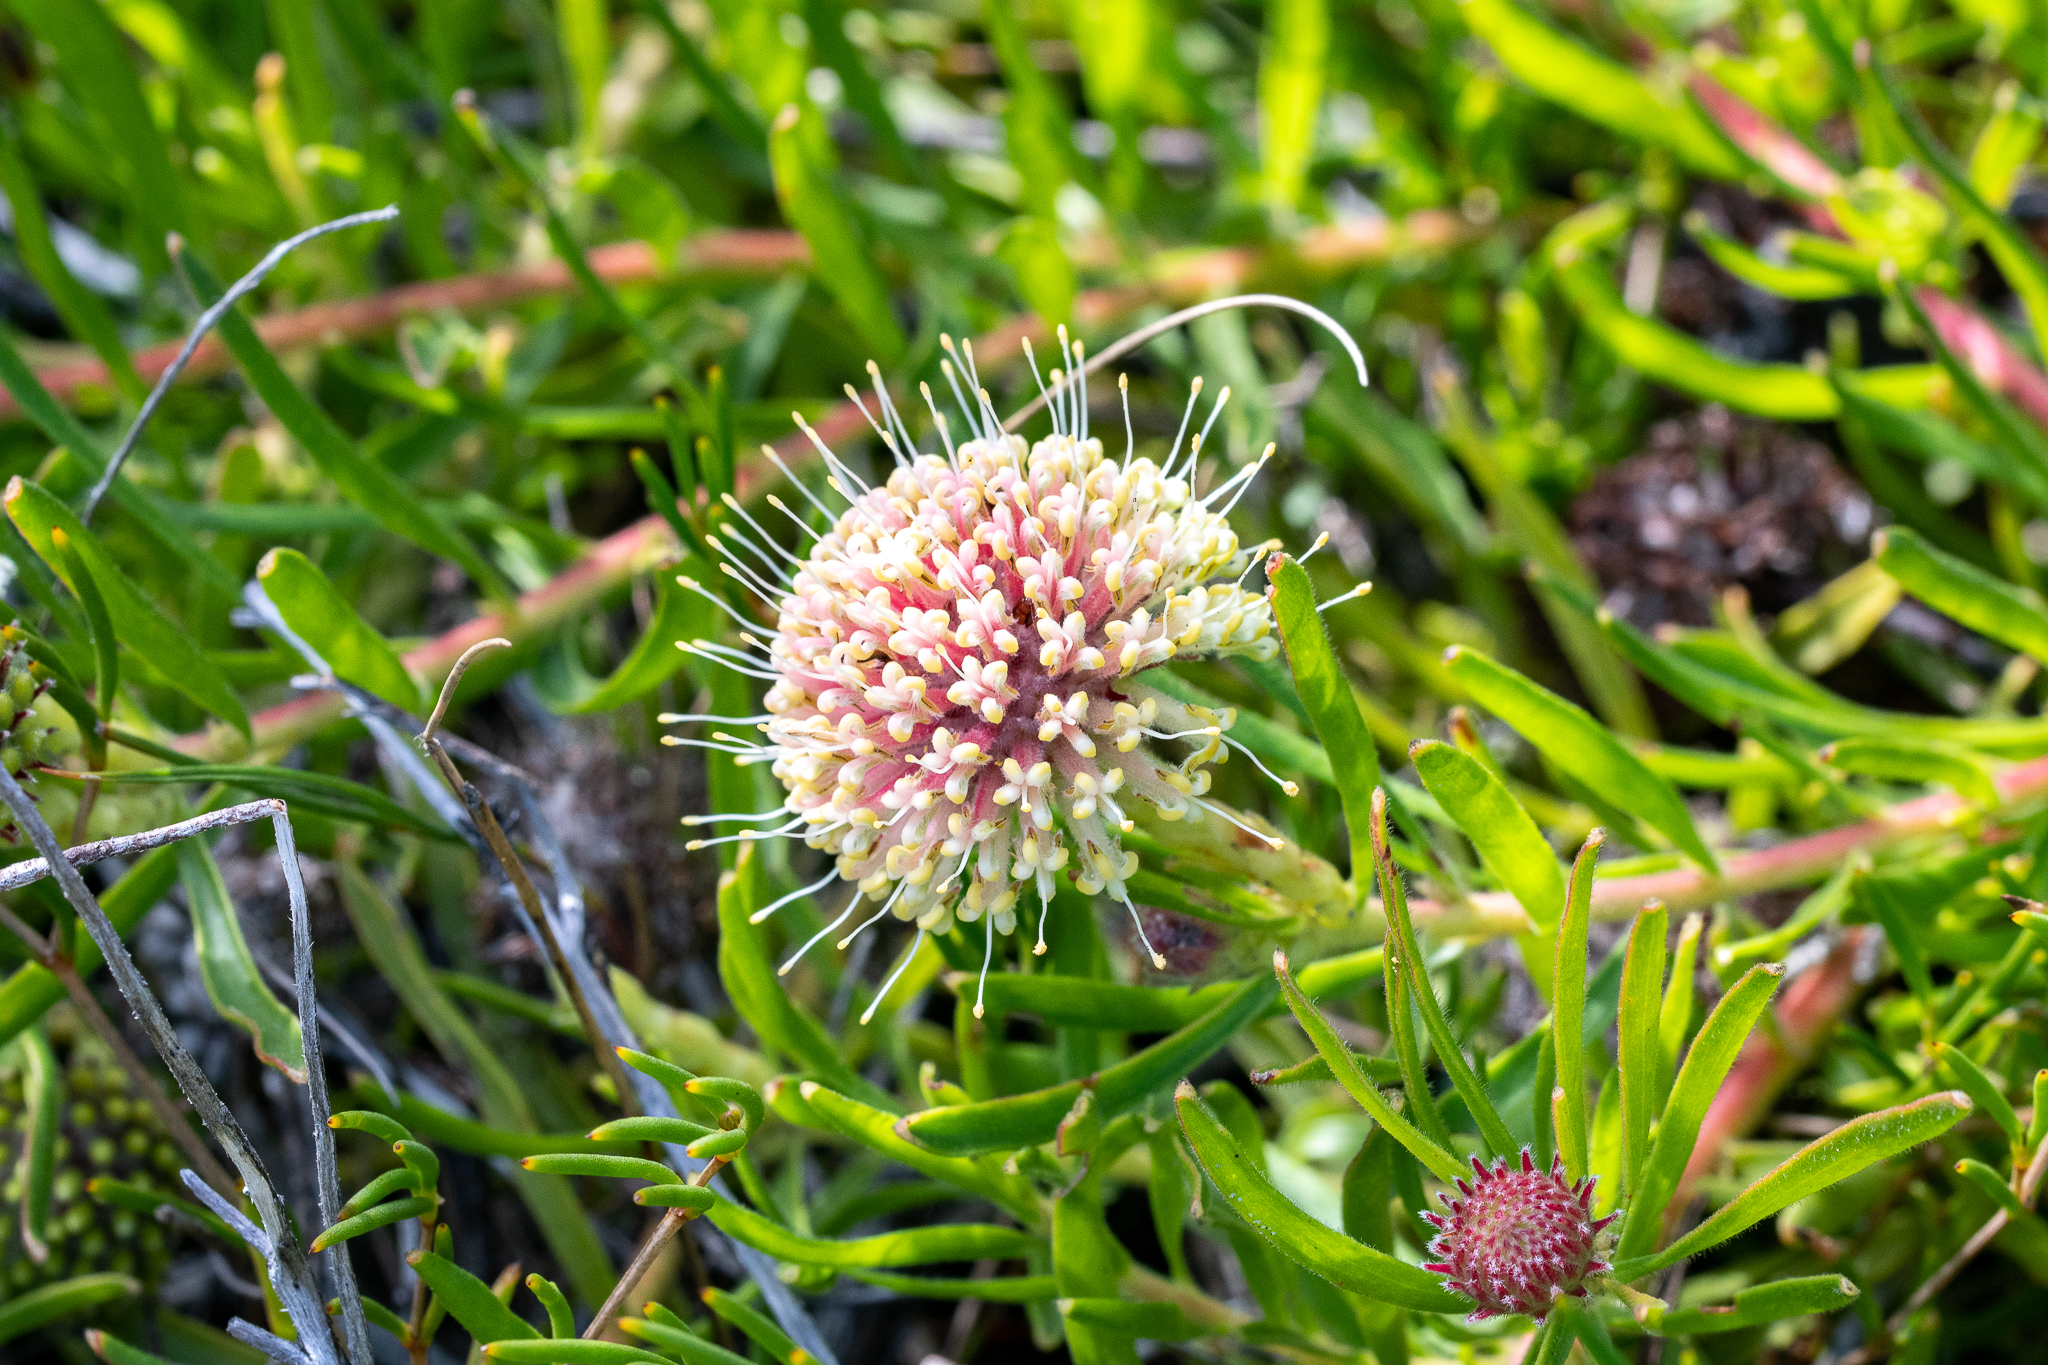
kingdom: Plantae
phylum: Tracheophyta
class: Magnoliopsida
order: Proteales
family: Proteaceae
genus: Leucospermum
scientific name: Leucospermum pedunculatum
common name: White-trailing pincushion
